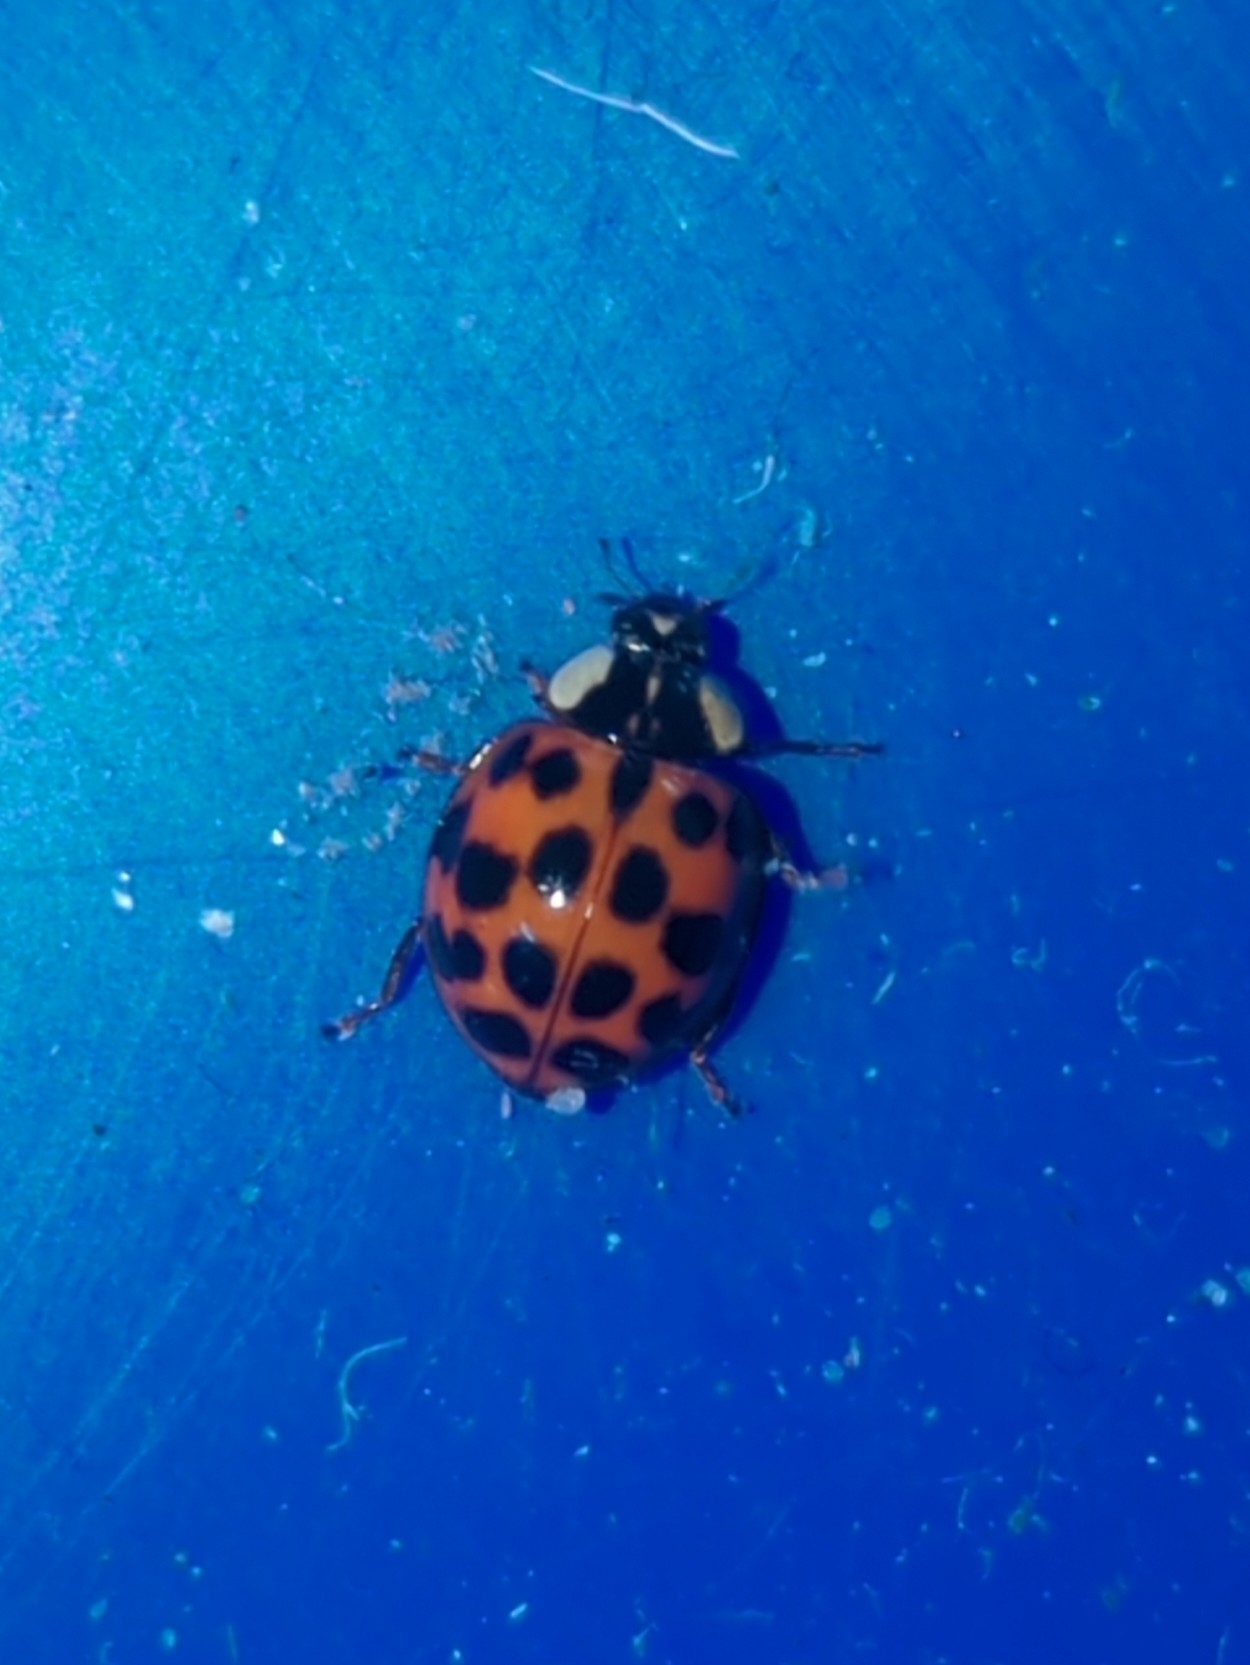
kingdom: Animalia
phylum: Arthropoda
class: Insecta
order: Coleoptera
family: Coccinellidae
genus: Harmonia
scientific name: Harmonia axyridis
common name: Harlequin ladybird
